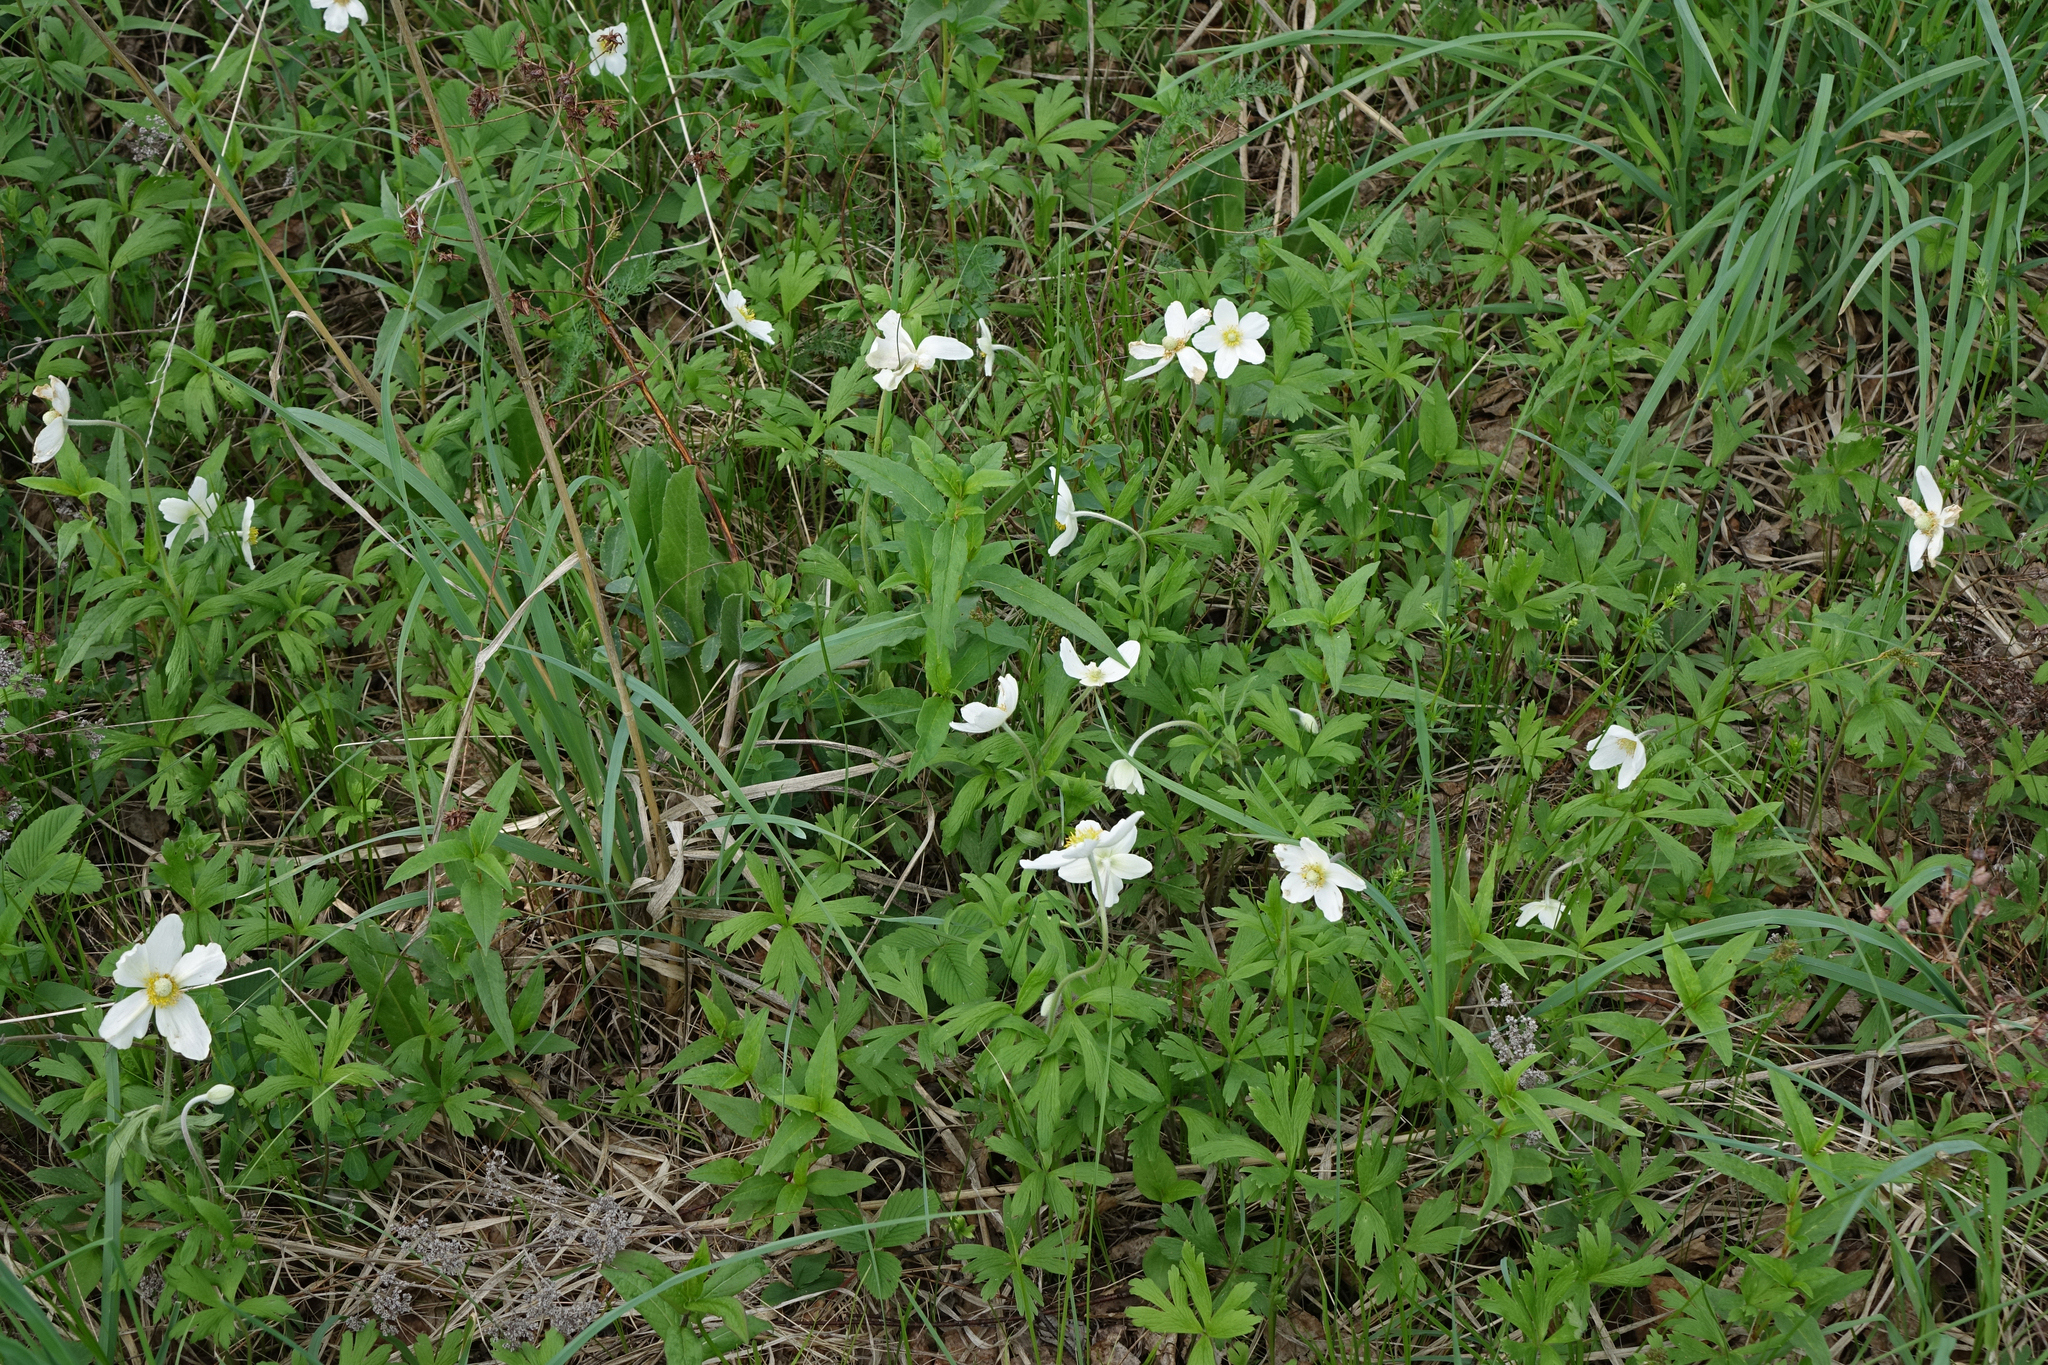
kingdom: Plantae
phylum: Tracheophyta
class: Magnoliopsida
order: Ranunculales
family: Ranunculaceae
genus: Anemone
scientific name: Anemone sylvestris
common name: Snowdrop anemone
